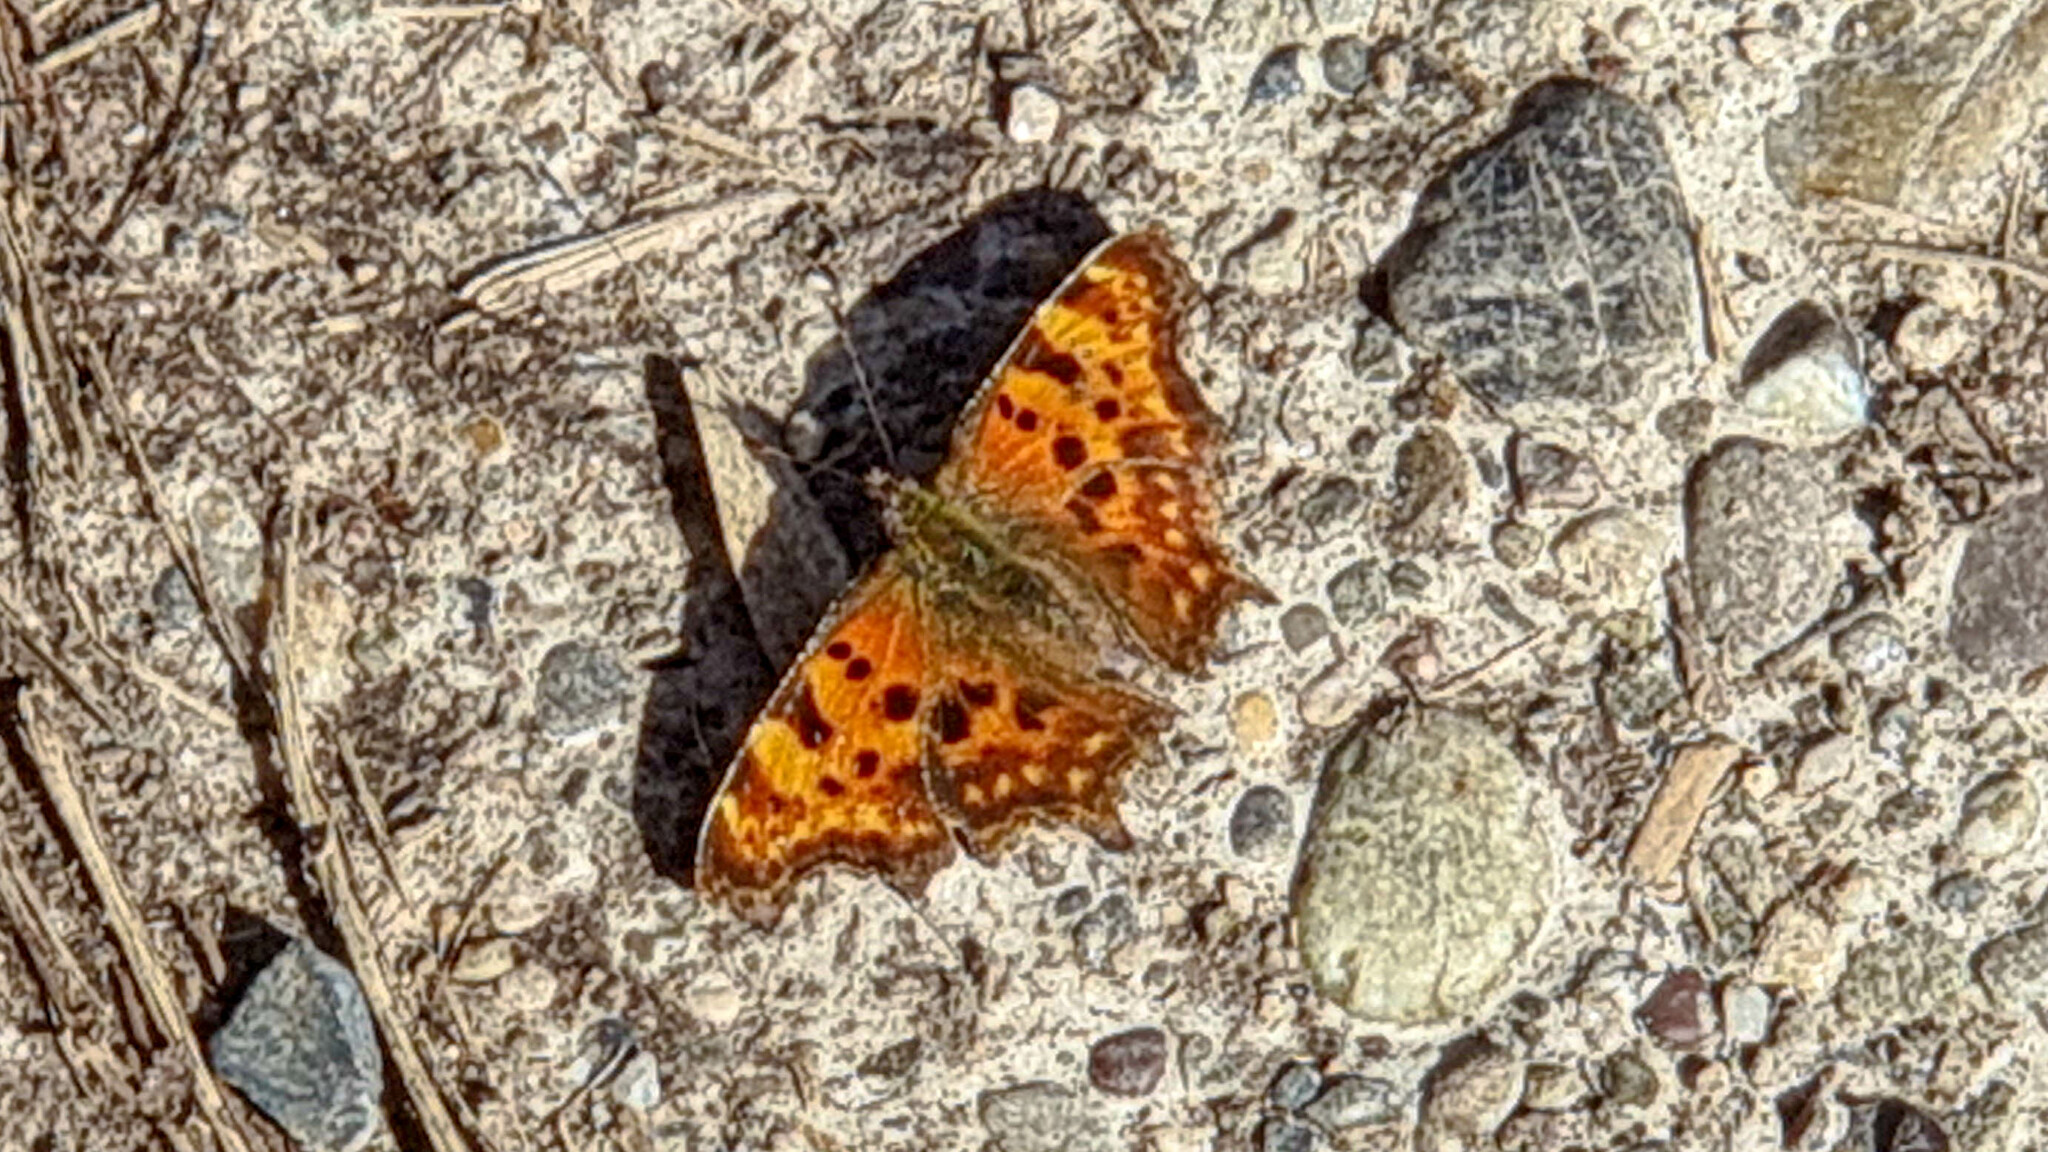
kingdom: Animalia
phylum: Arthropoda
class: Insecta
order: Lepidoptera
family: Nymphalidae
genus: Polygonia
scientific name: Polygonia c-album
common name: Comma
